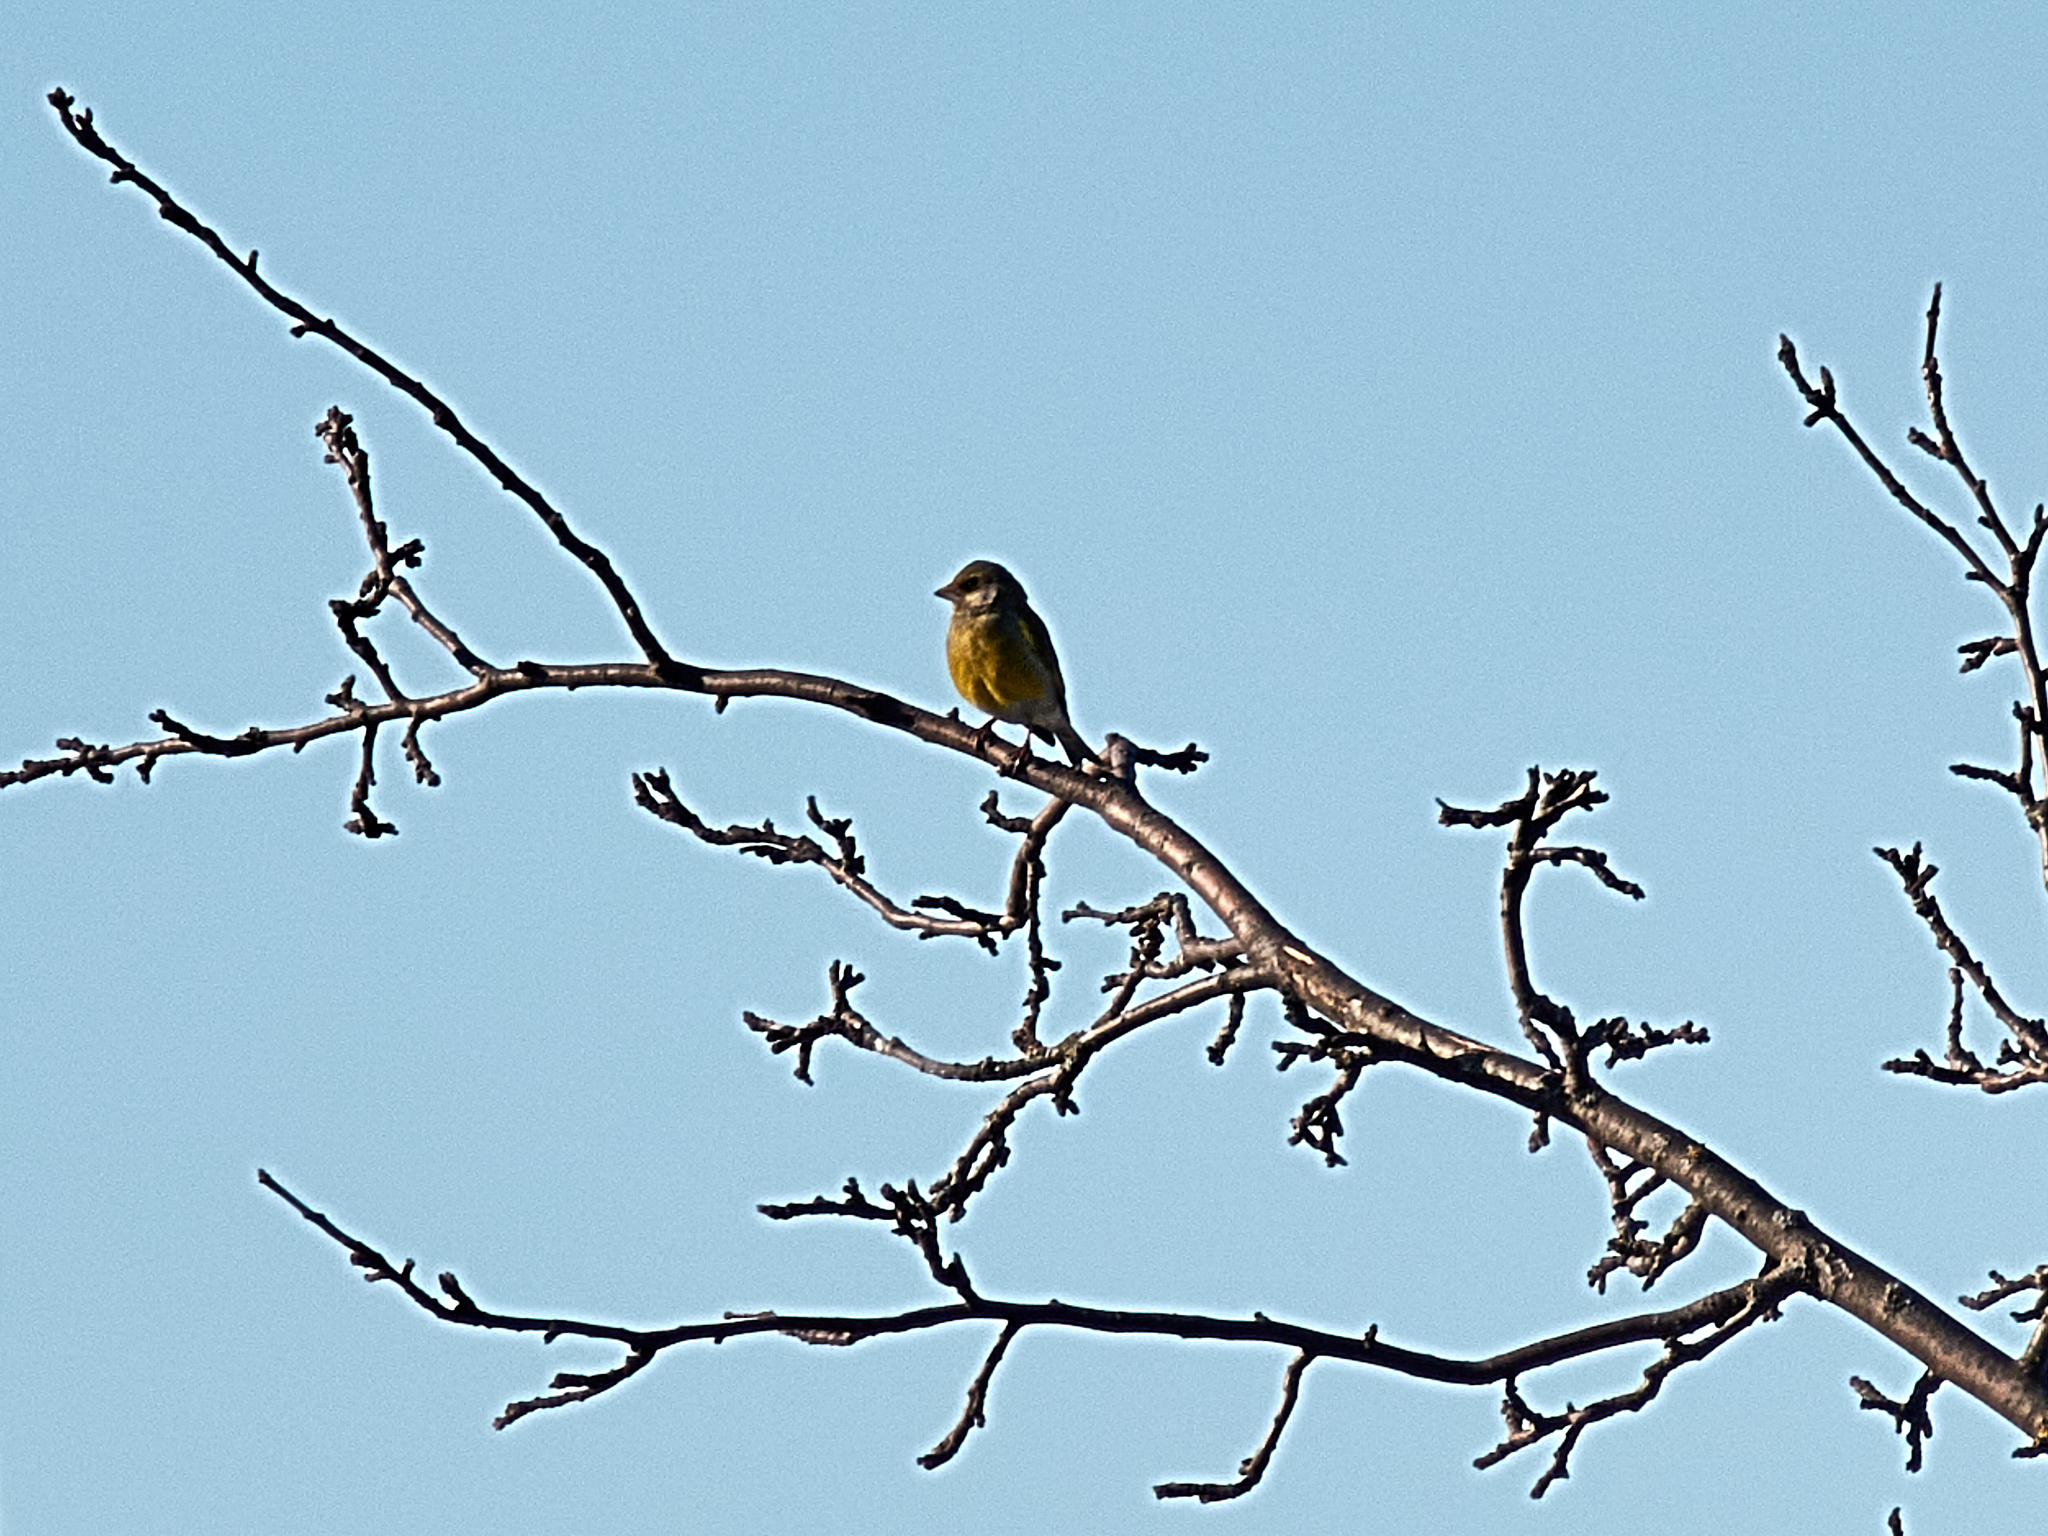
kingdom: Plantae
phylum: Tracheophyta
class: Liliopsida
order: Poales
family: Poaceae
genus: Chloris
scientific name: Chloris chloris
